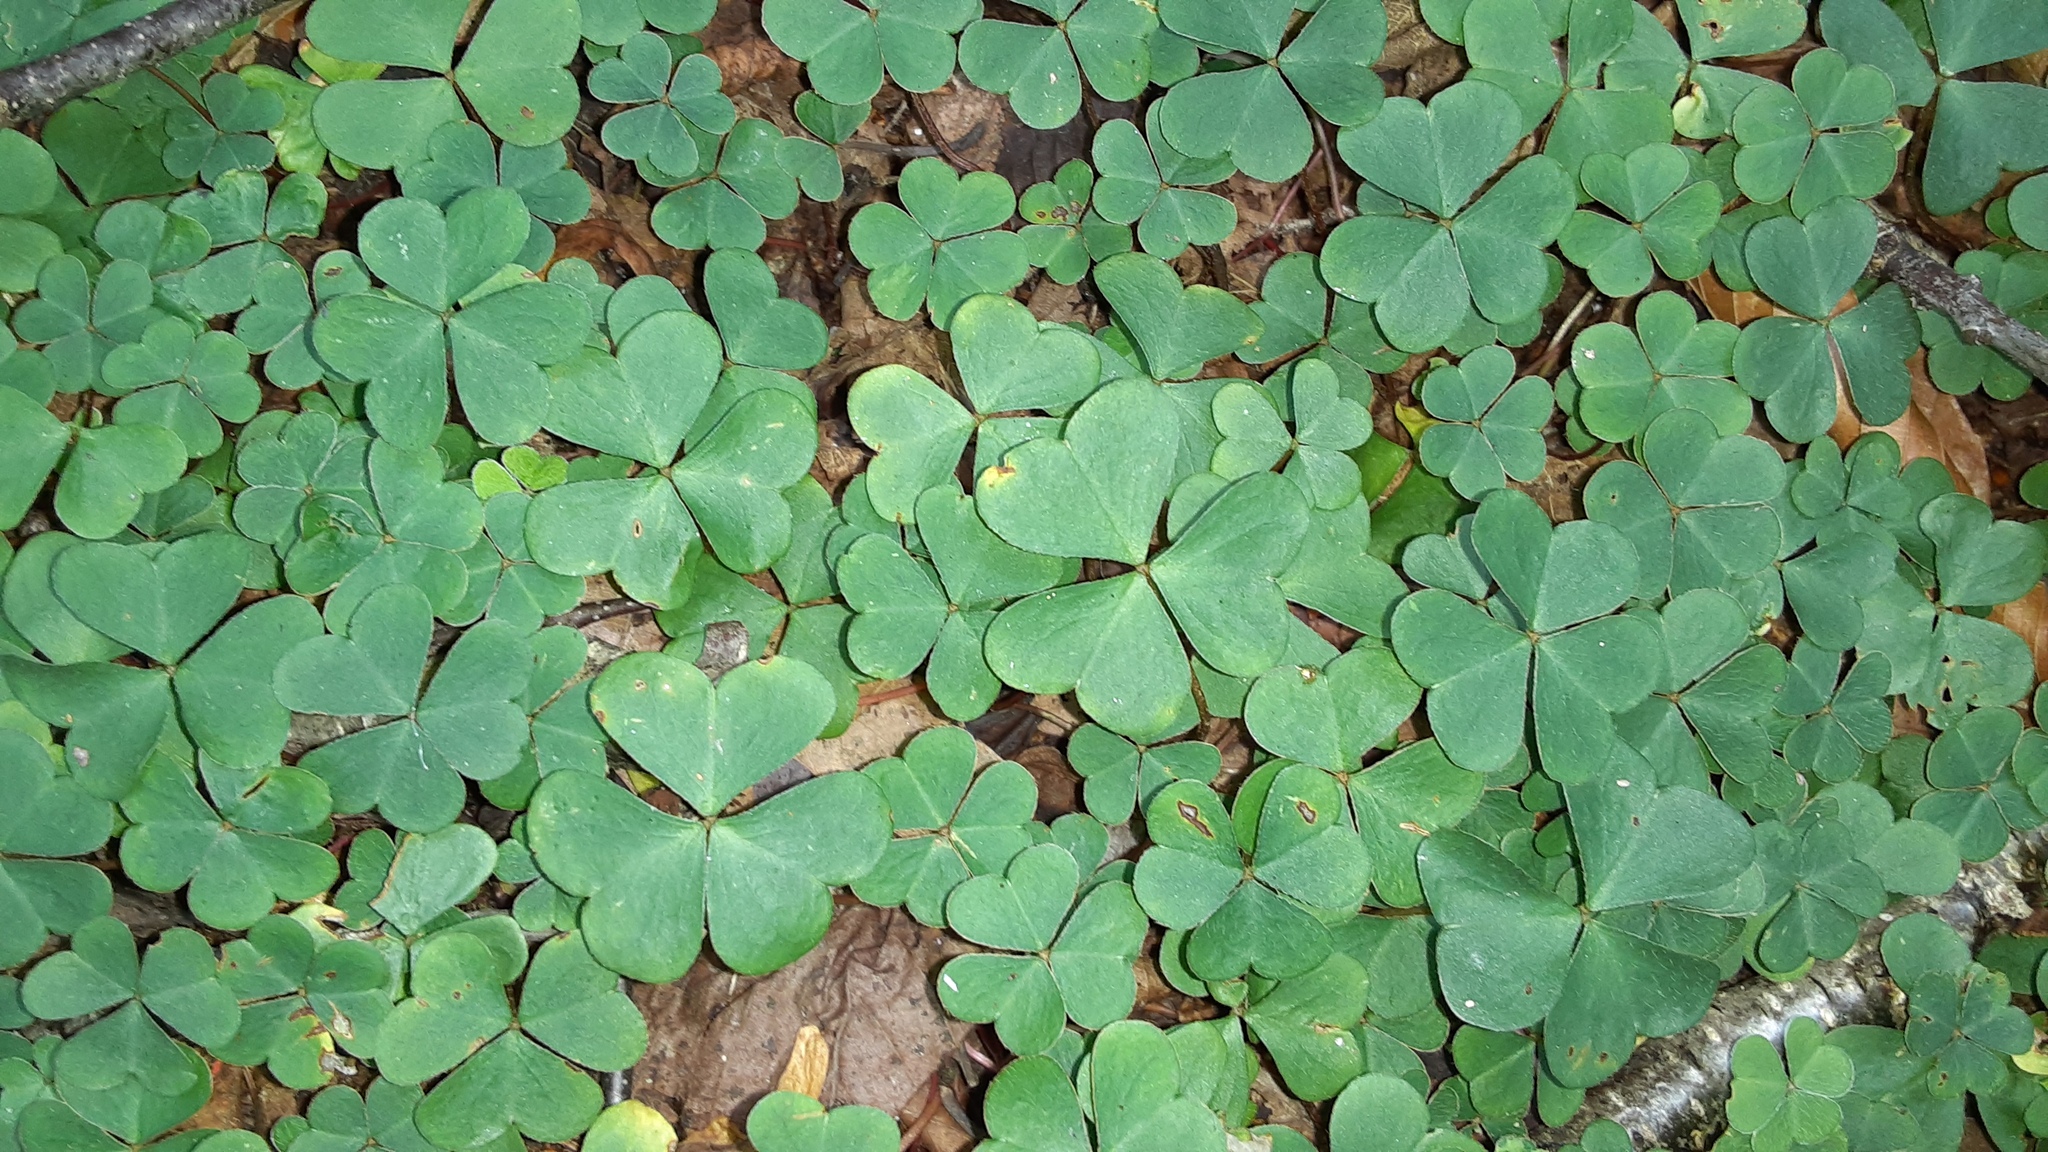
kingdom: Plantae
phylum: Tracheophyta
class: Magnoliopsida
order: Oxalidales
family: Oxalidaceae
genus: Oxalis
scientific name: Oxalis montana
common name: American wood-sorrel
